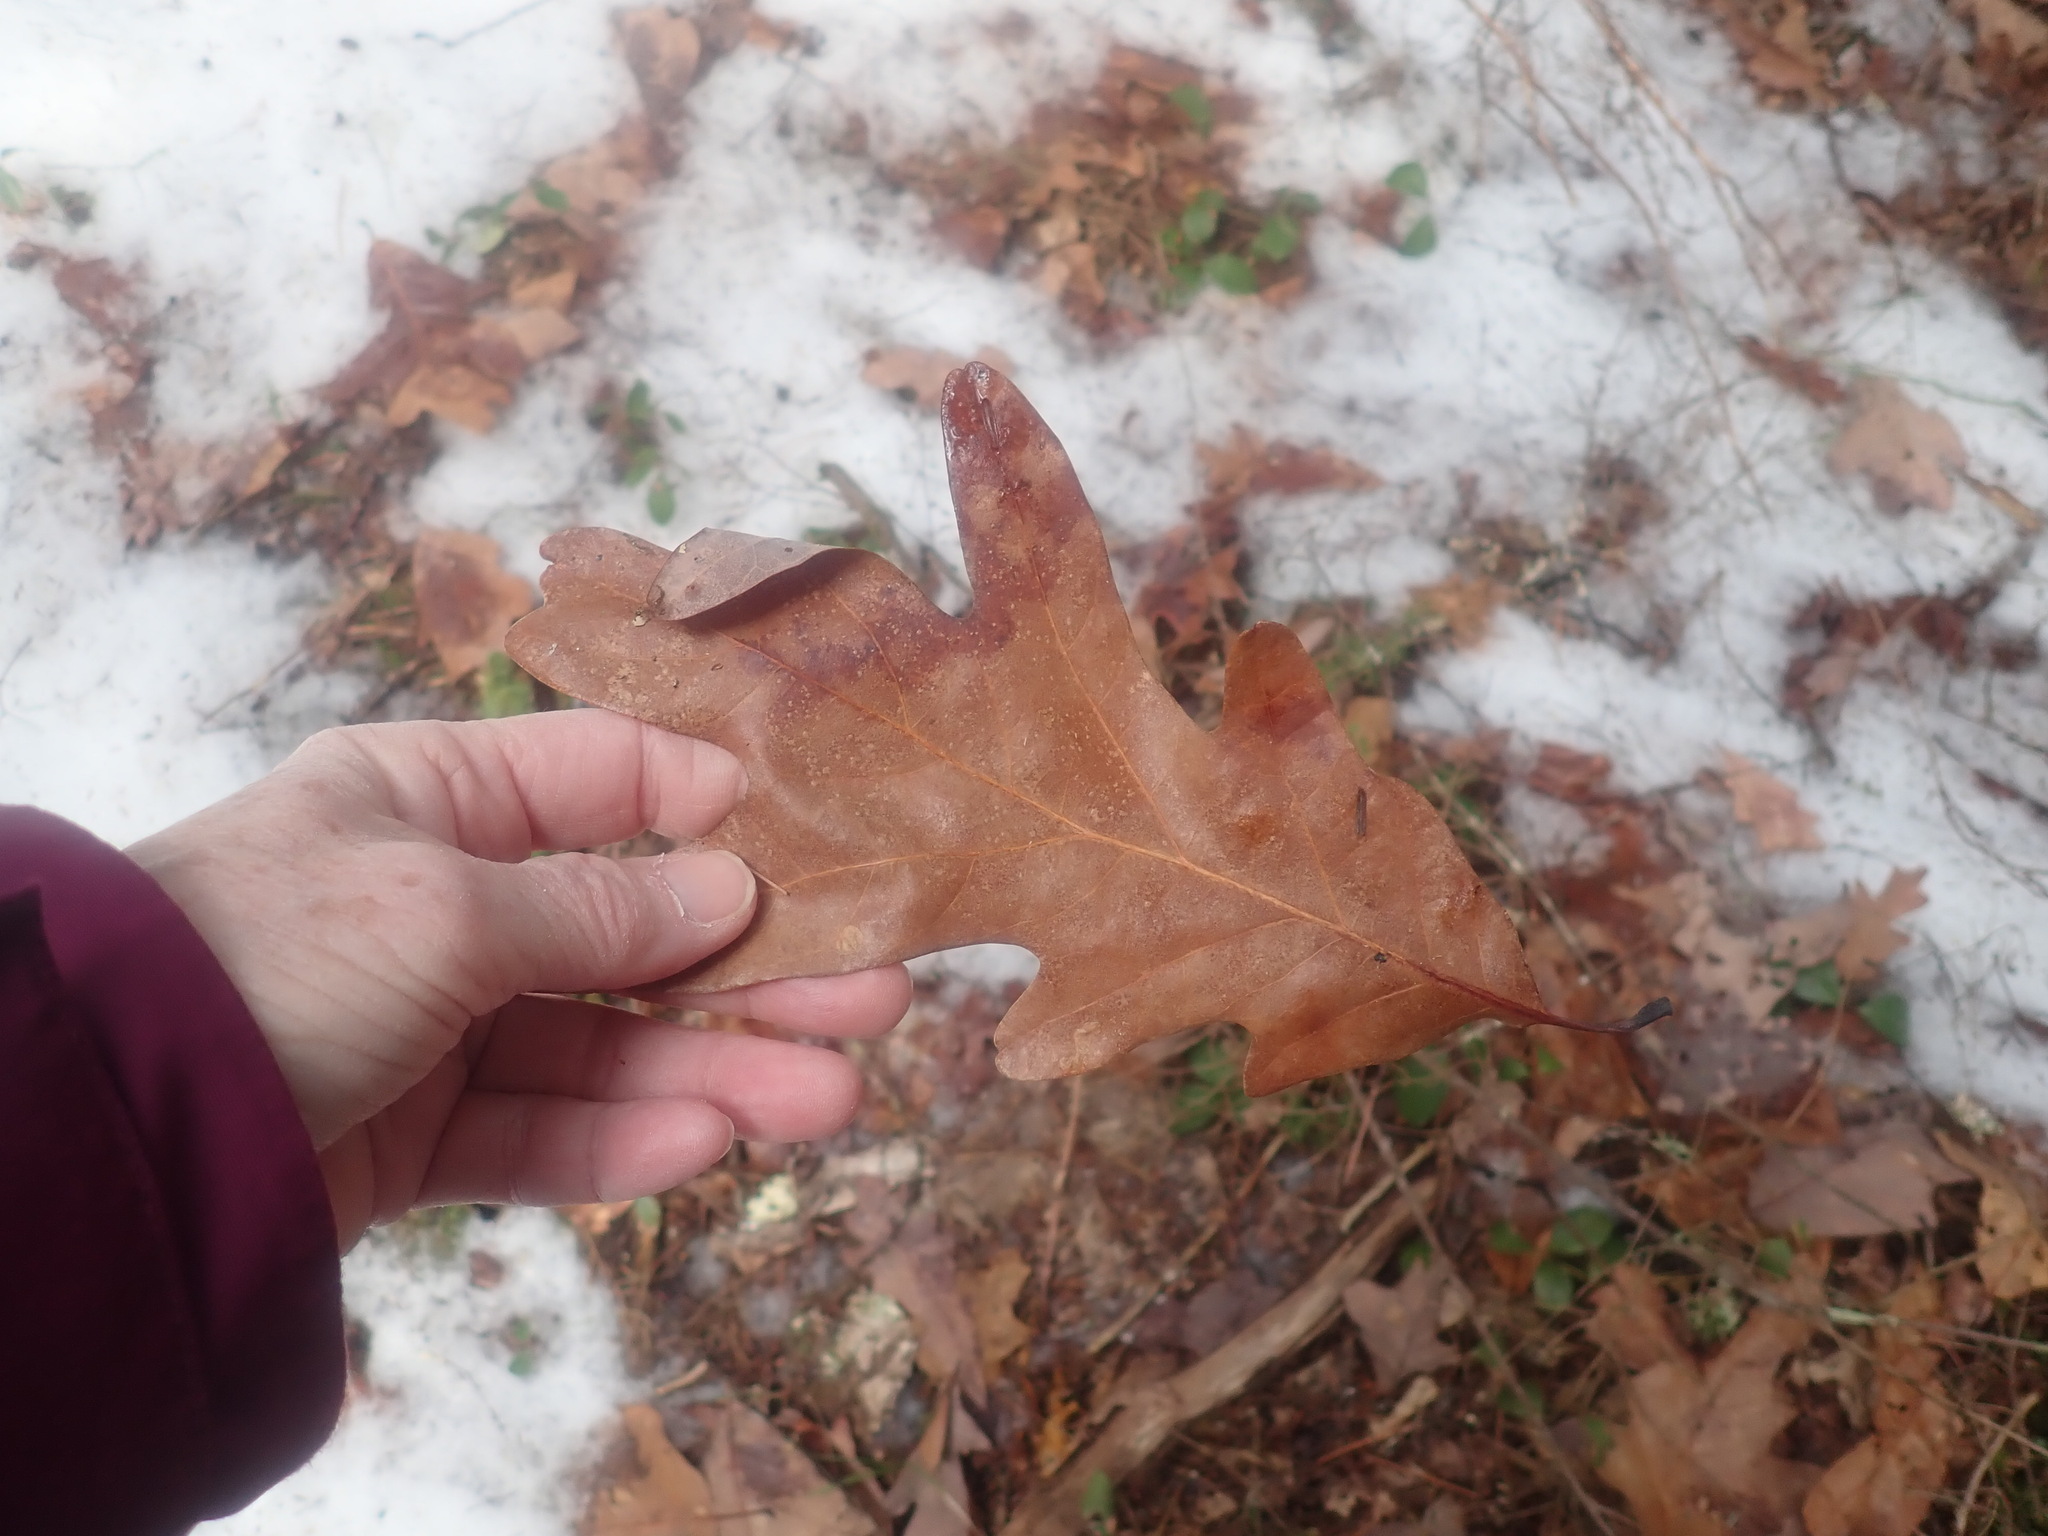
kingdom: Plantae
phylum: Tracheophyta
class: Magnoliopsida
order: Fagales
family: Fagaceae
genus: Quercus
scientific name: Quercus alba
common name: White oak
